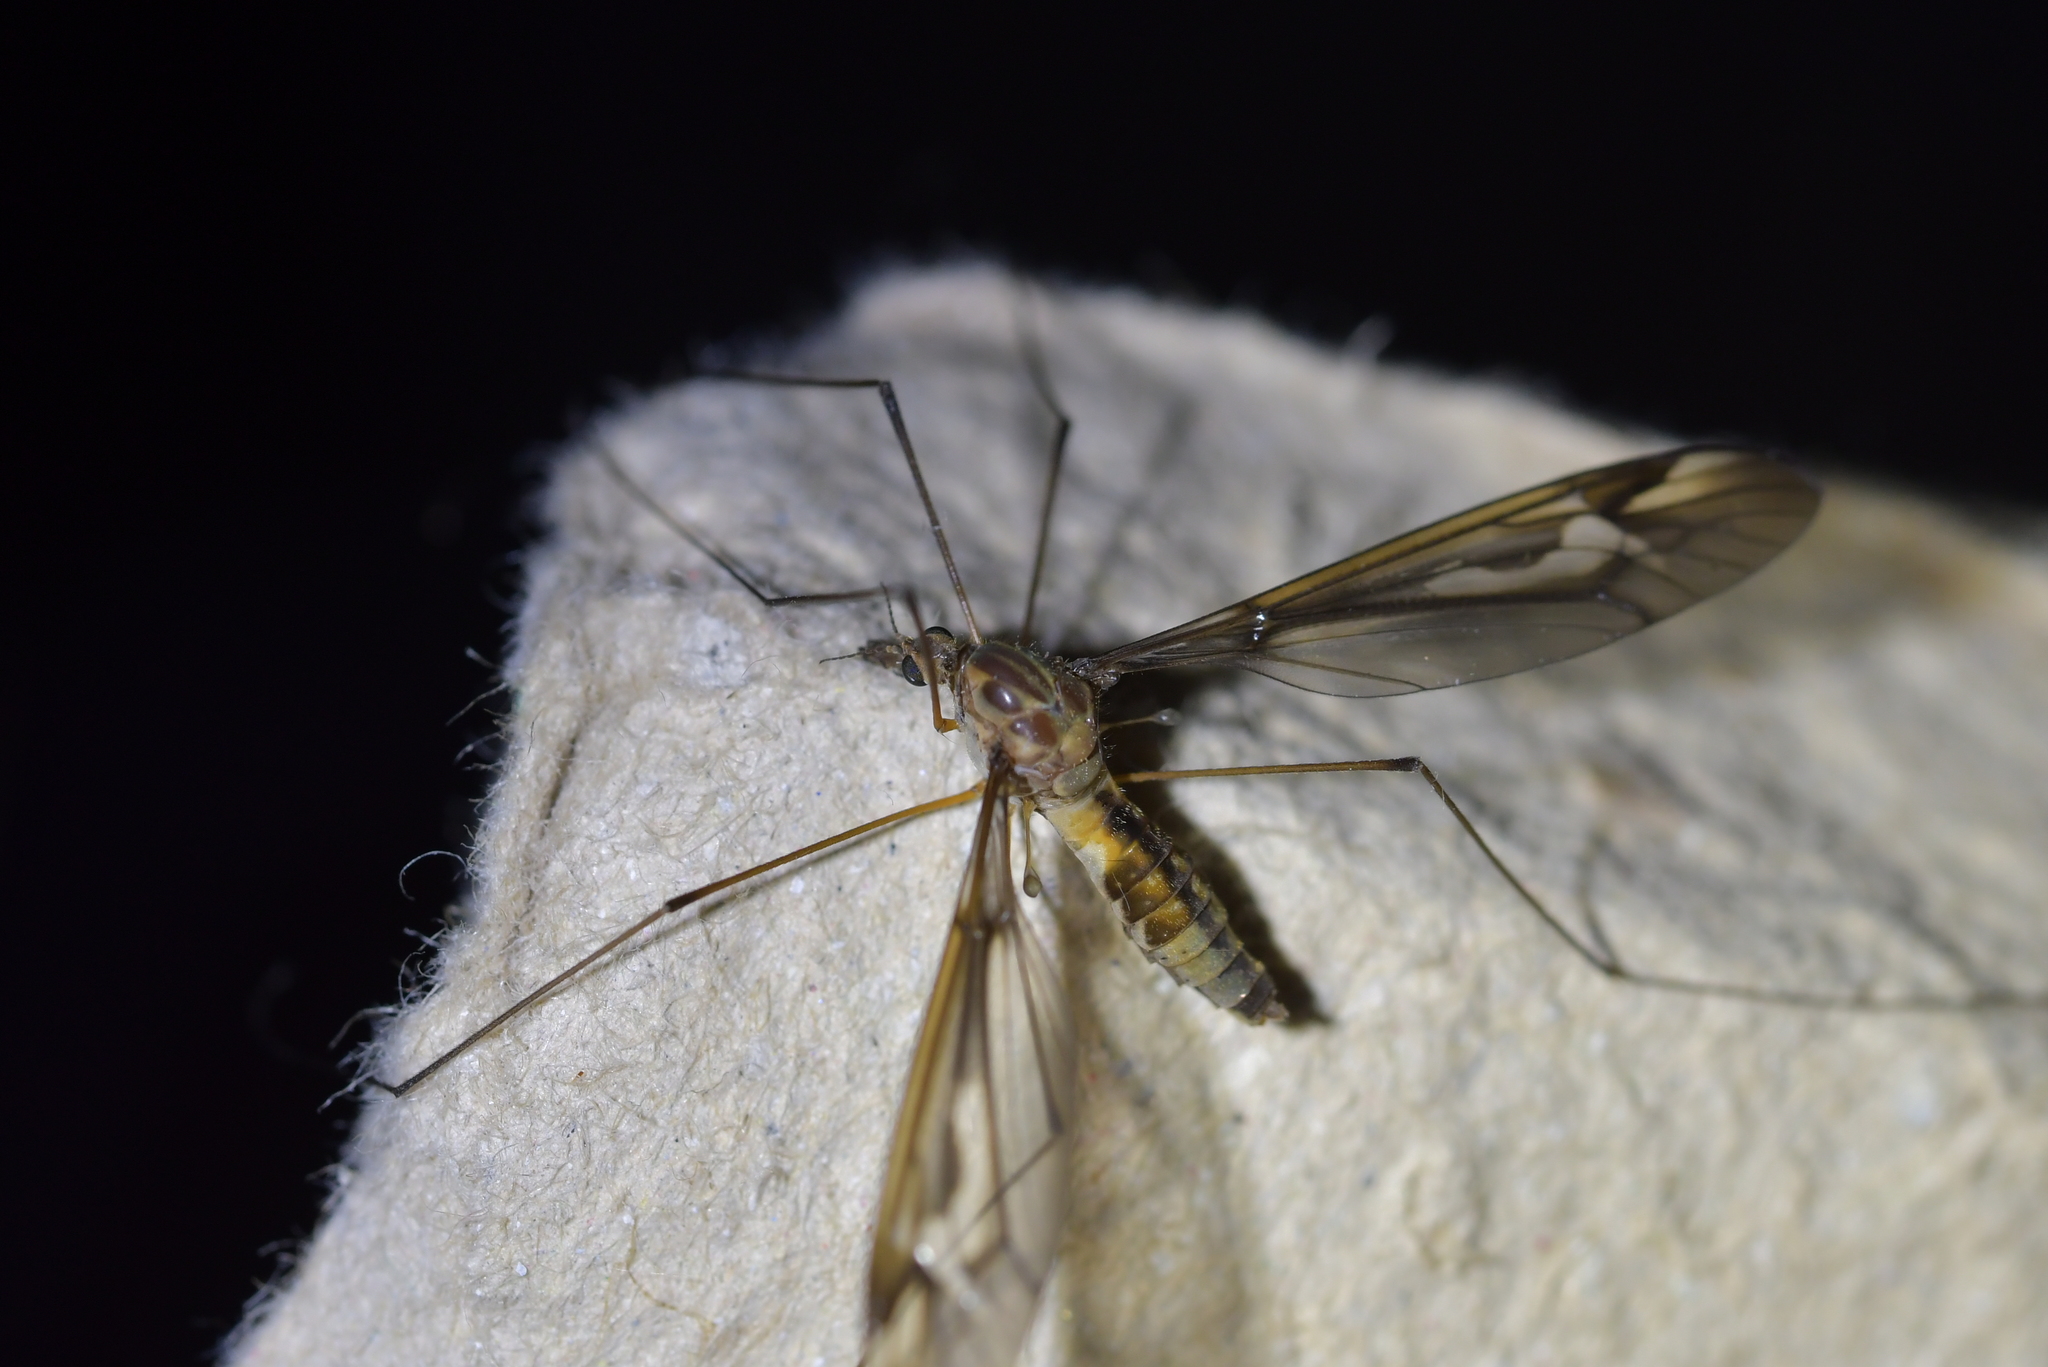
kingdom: Animalia
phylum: Arthropoda
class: Insecta
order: Diptera
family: Tipulidae
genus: Leptotarsus
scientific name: Leptotarsus lunatus
